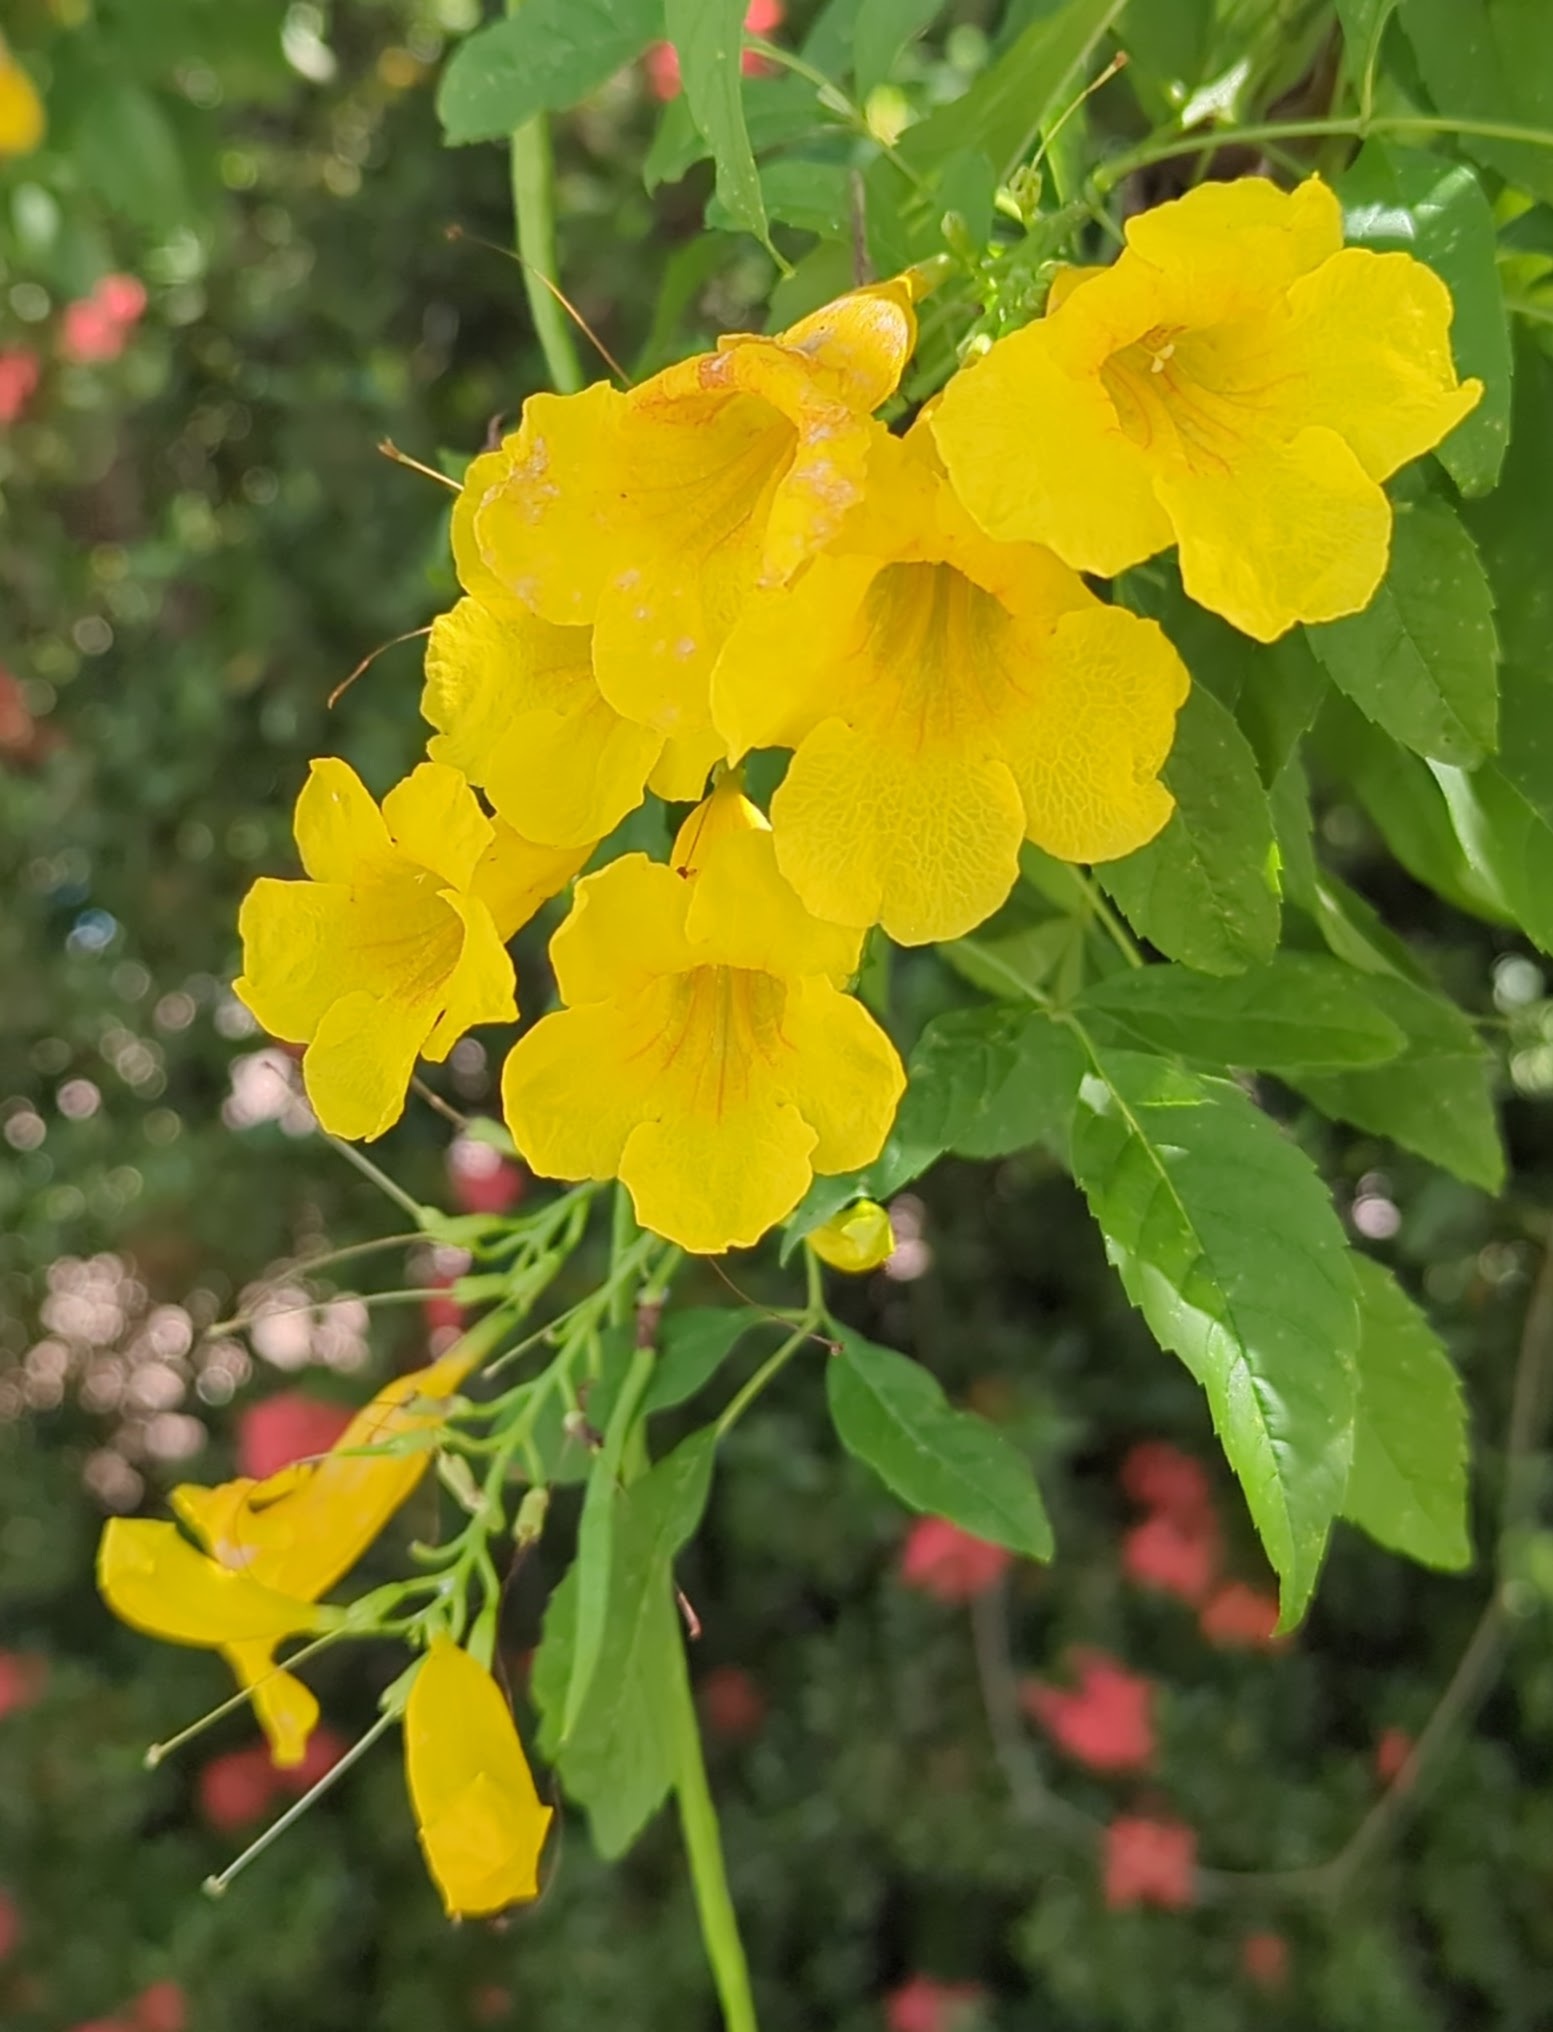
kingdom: Plantae
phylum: Tracheophyta
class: Magnoliopsida
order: Lamiales
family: Bignoniaceae
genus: Tecoma
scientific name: Tecoma stans
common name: Yellow trumpetbush
